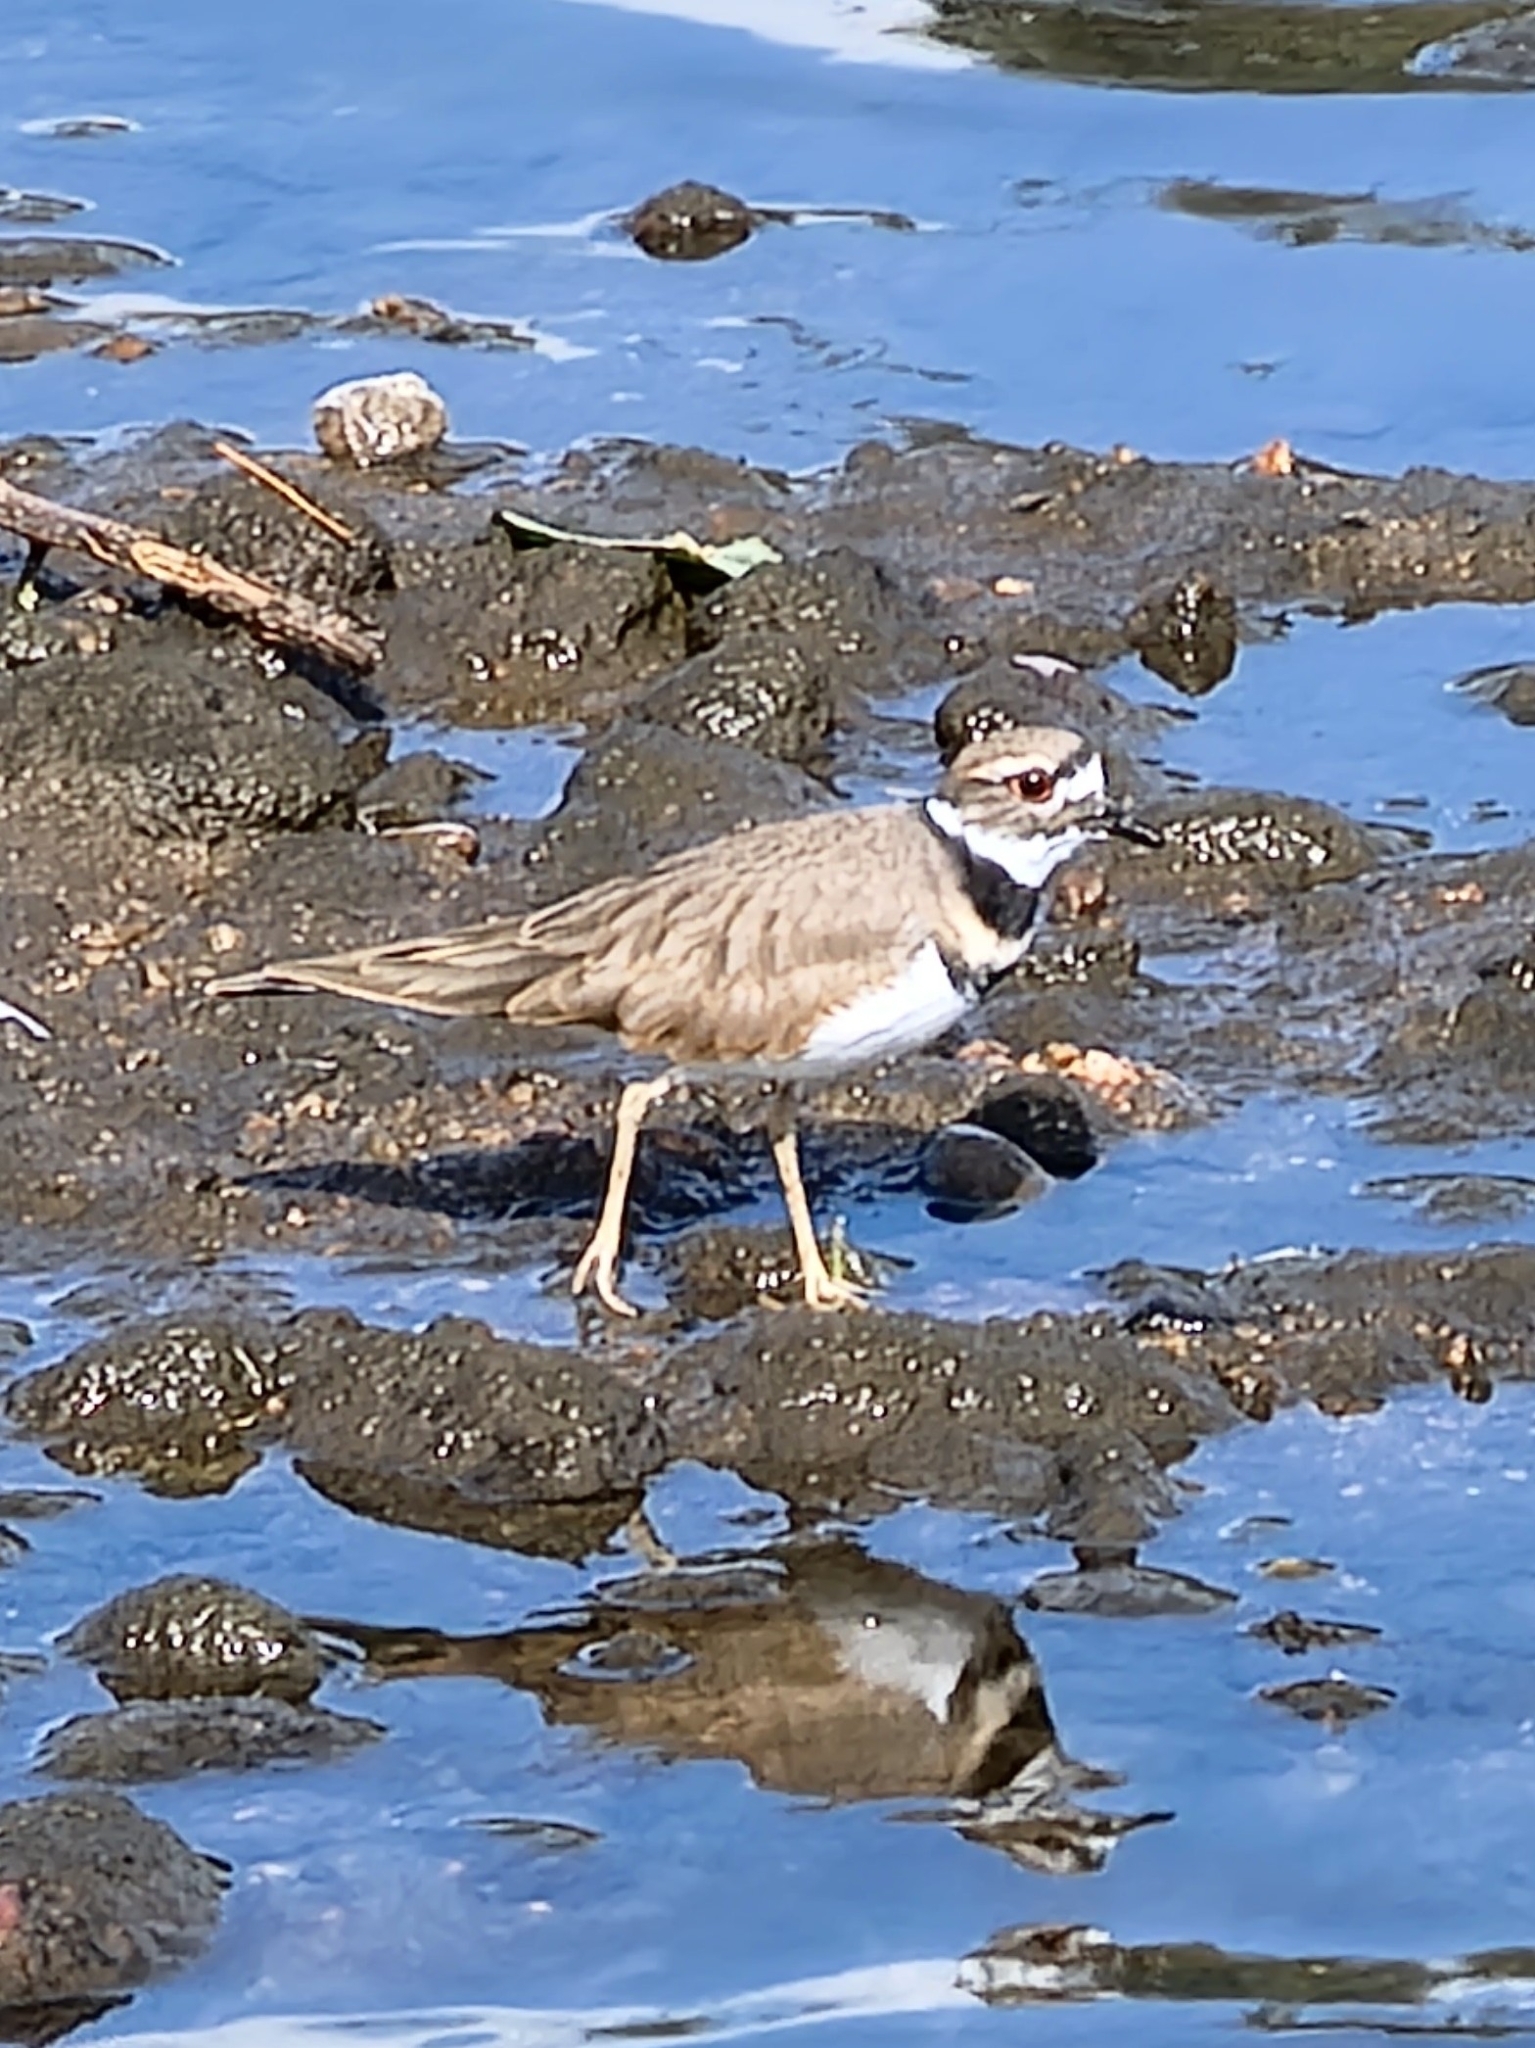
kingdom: Animalia
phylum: Chordata
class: Aves
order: Charadriiformes
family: Charadriidae
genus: Charadrius
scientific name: Charadrius vociferus
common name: Killdeer
